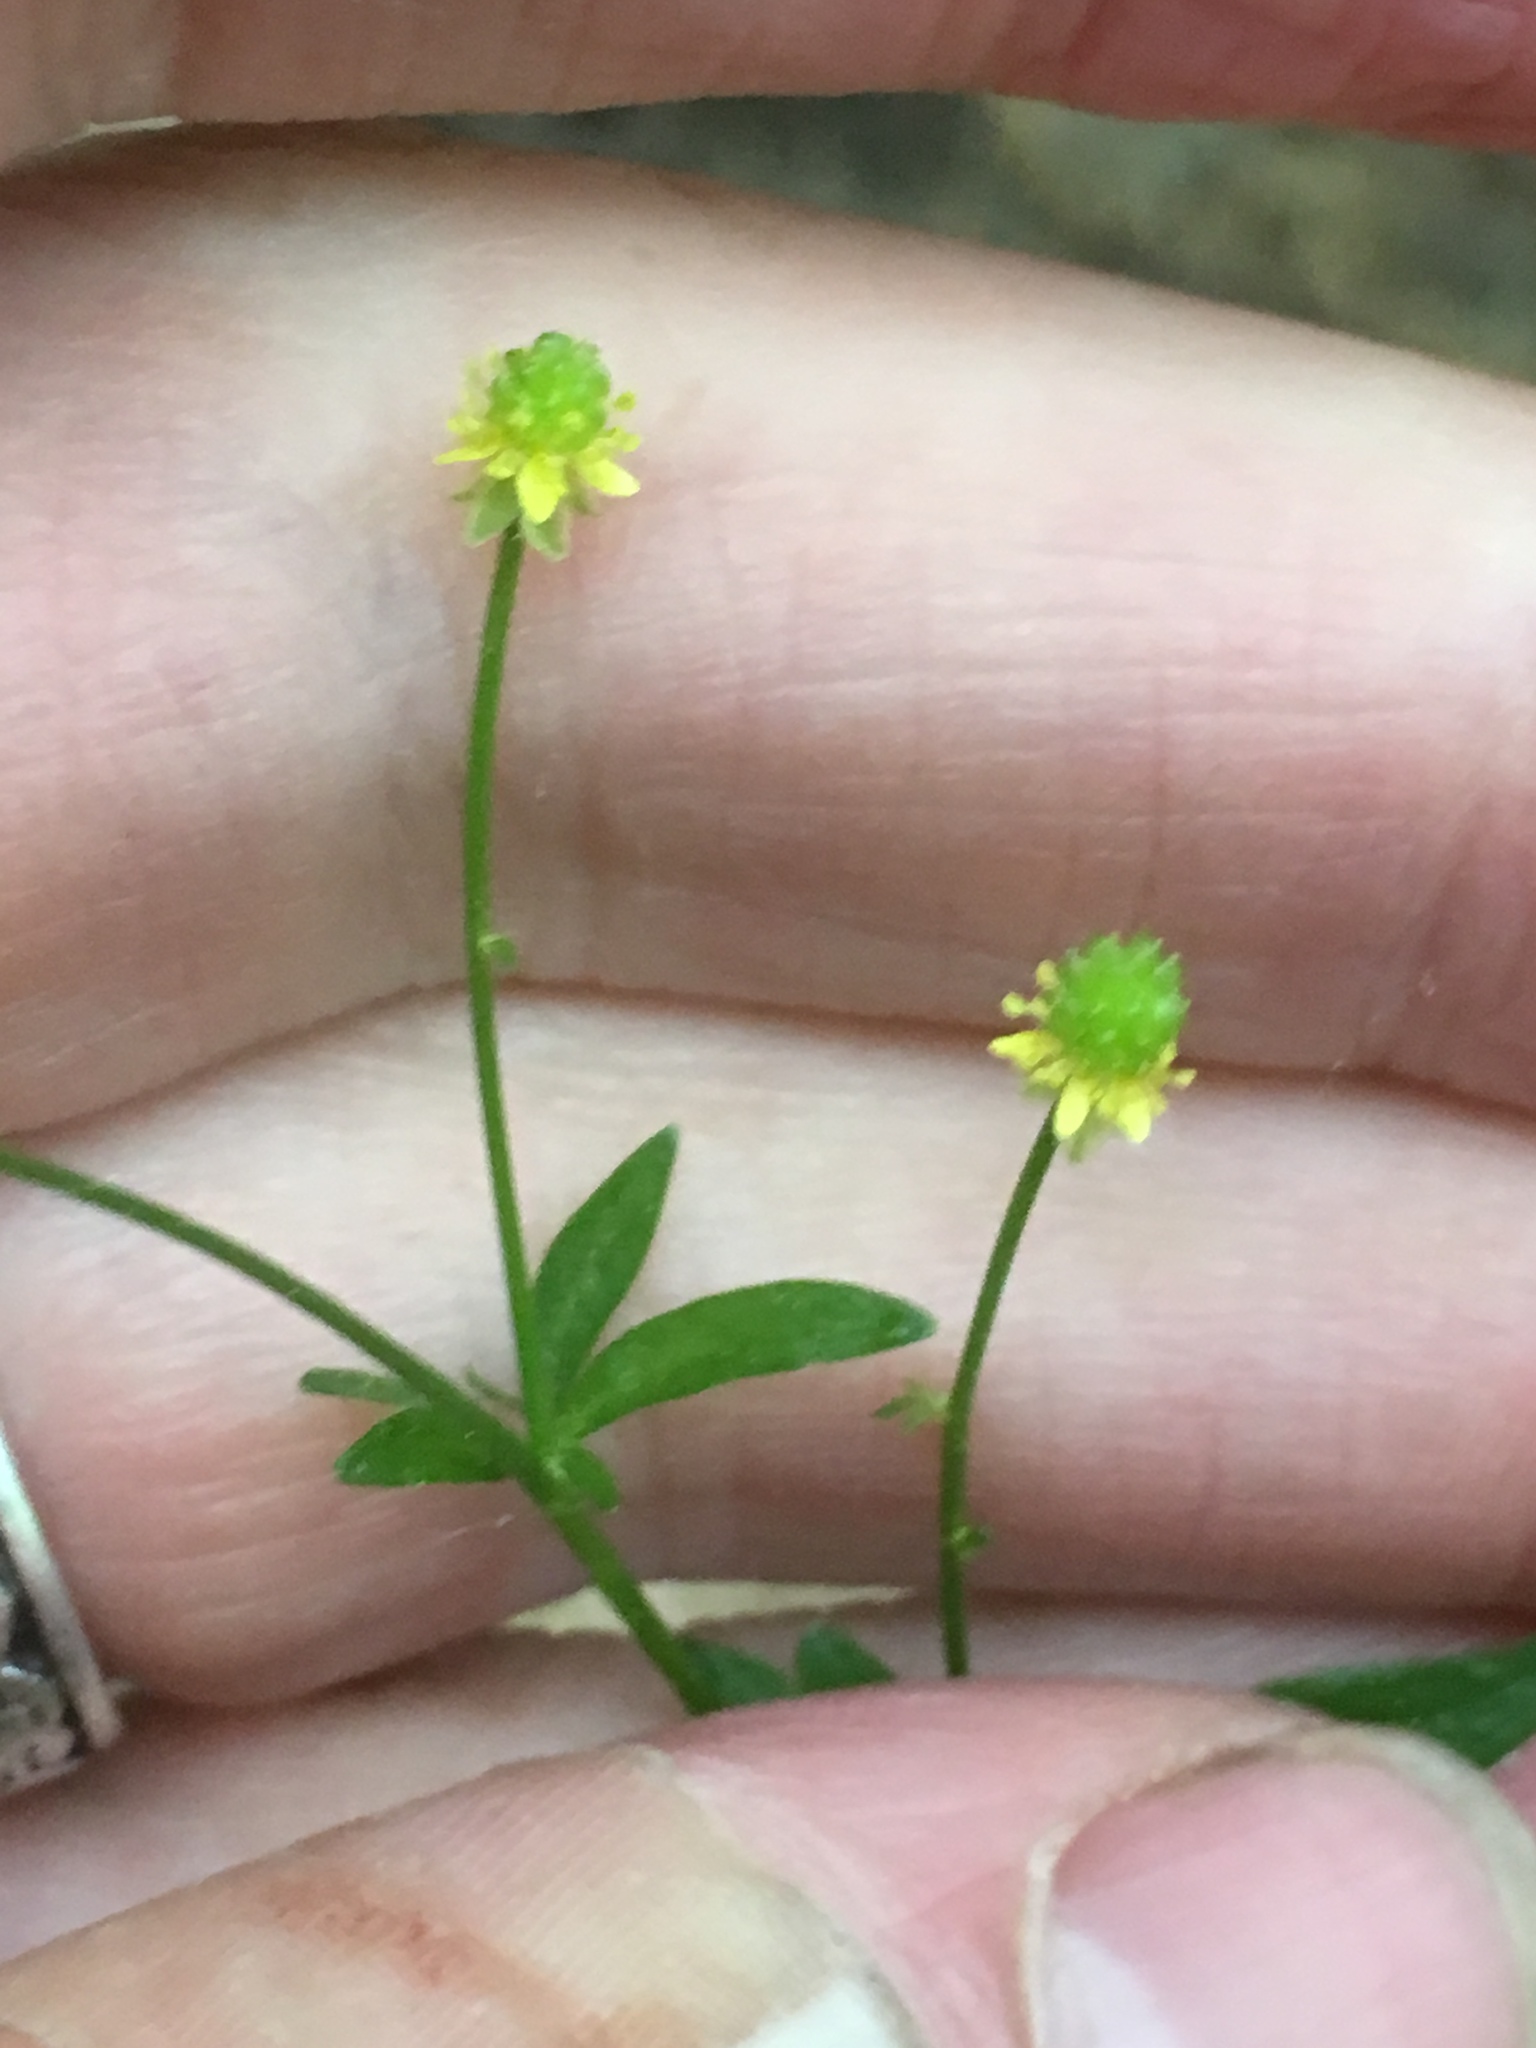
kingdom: Plantae
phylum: Tracheophyta
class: Magnoliopsida
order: Ranunculales
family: Ranunculaceae
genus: Ranunculus
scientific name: Ranunculus abortivus
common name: Early wood buttercup
